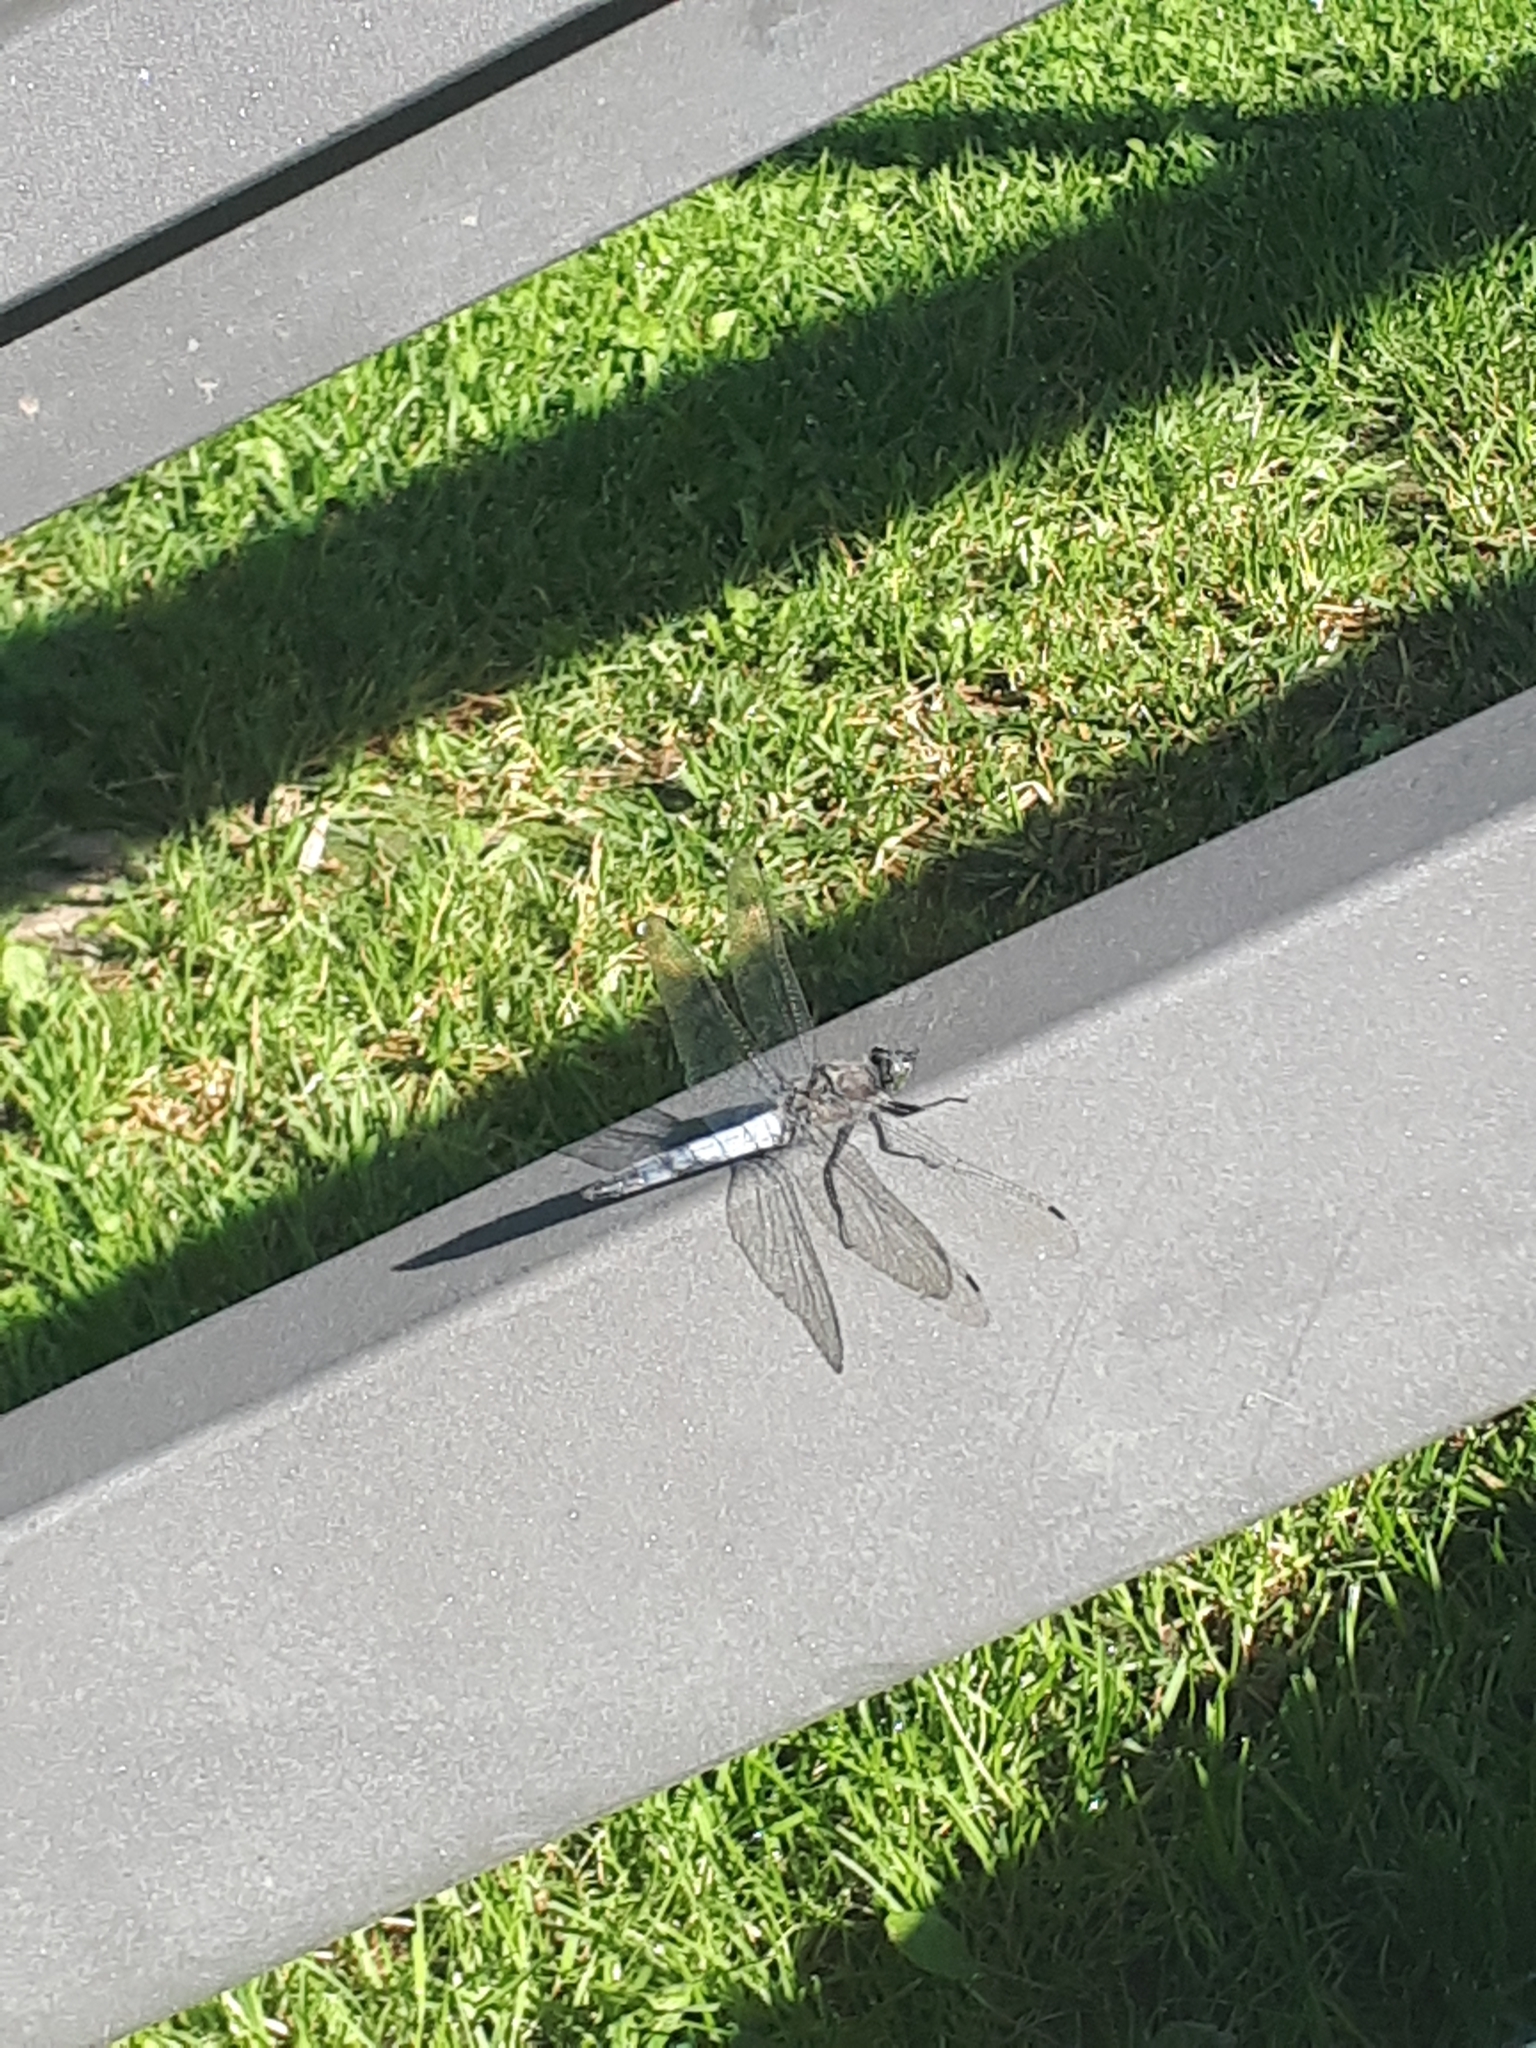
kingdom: Animalia
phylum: Arthropoda
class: Insecta
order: Odonata
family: Libellulidae
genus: Orthetrum
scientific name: Orthetrum cancellatum
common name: Black-tailed skimmer
